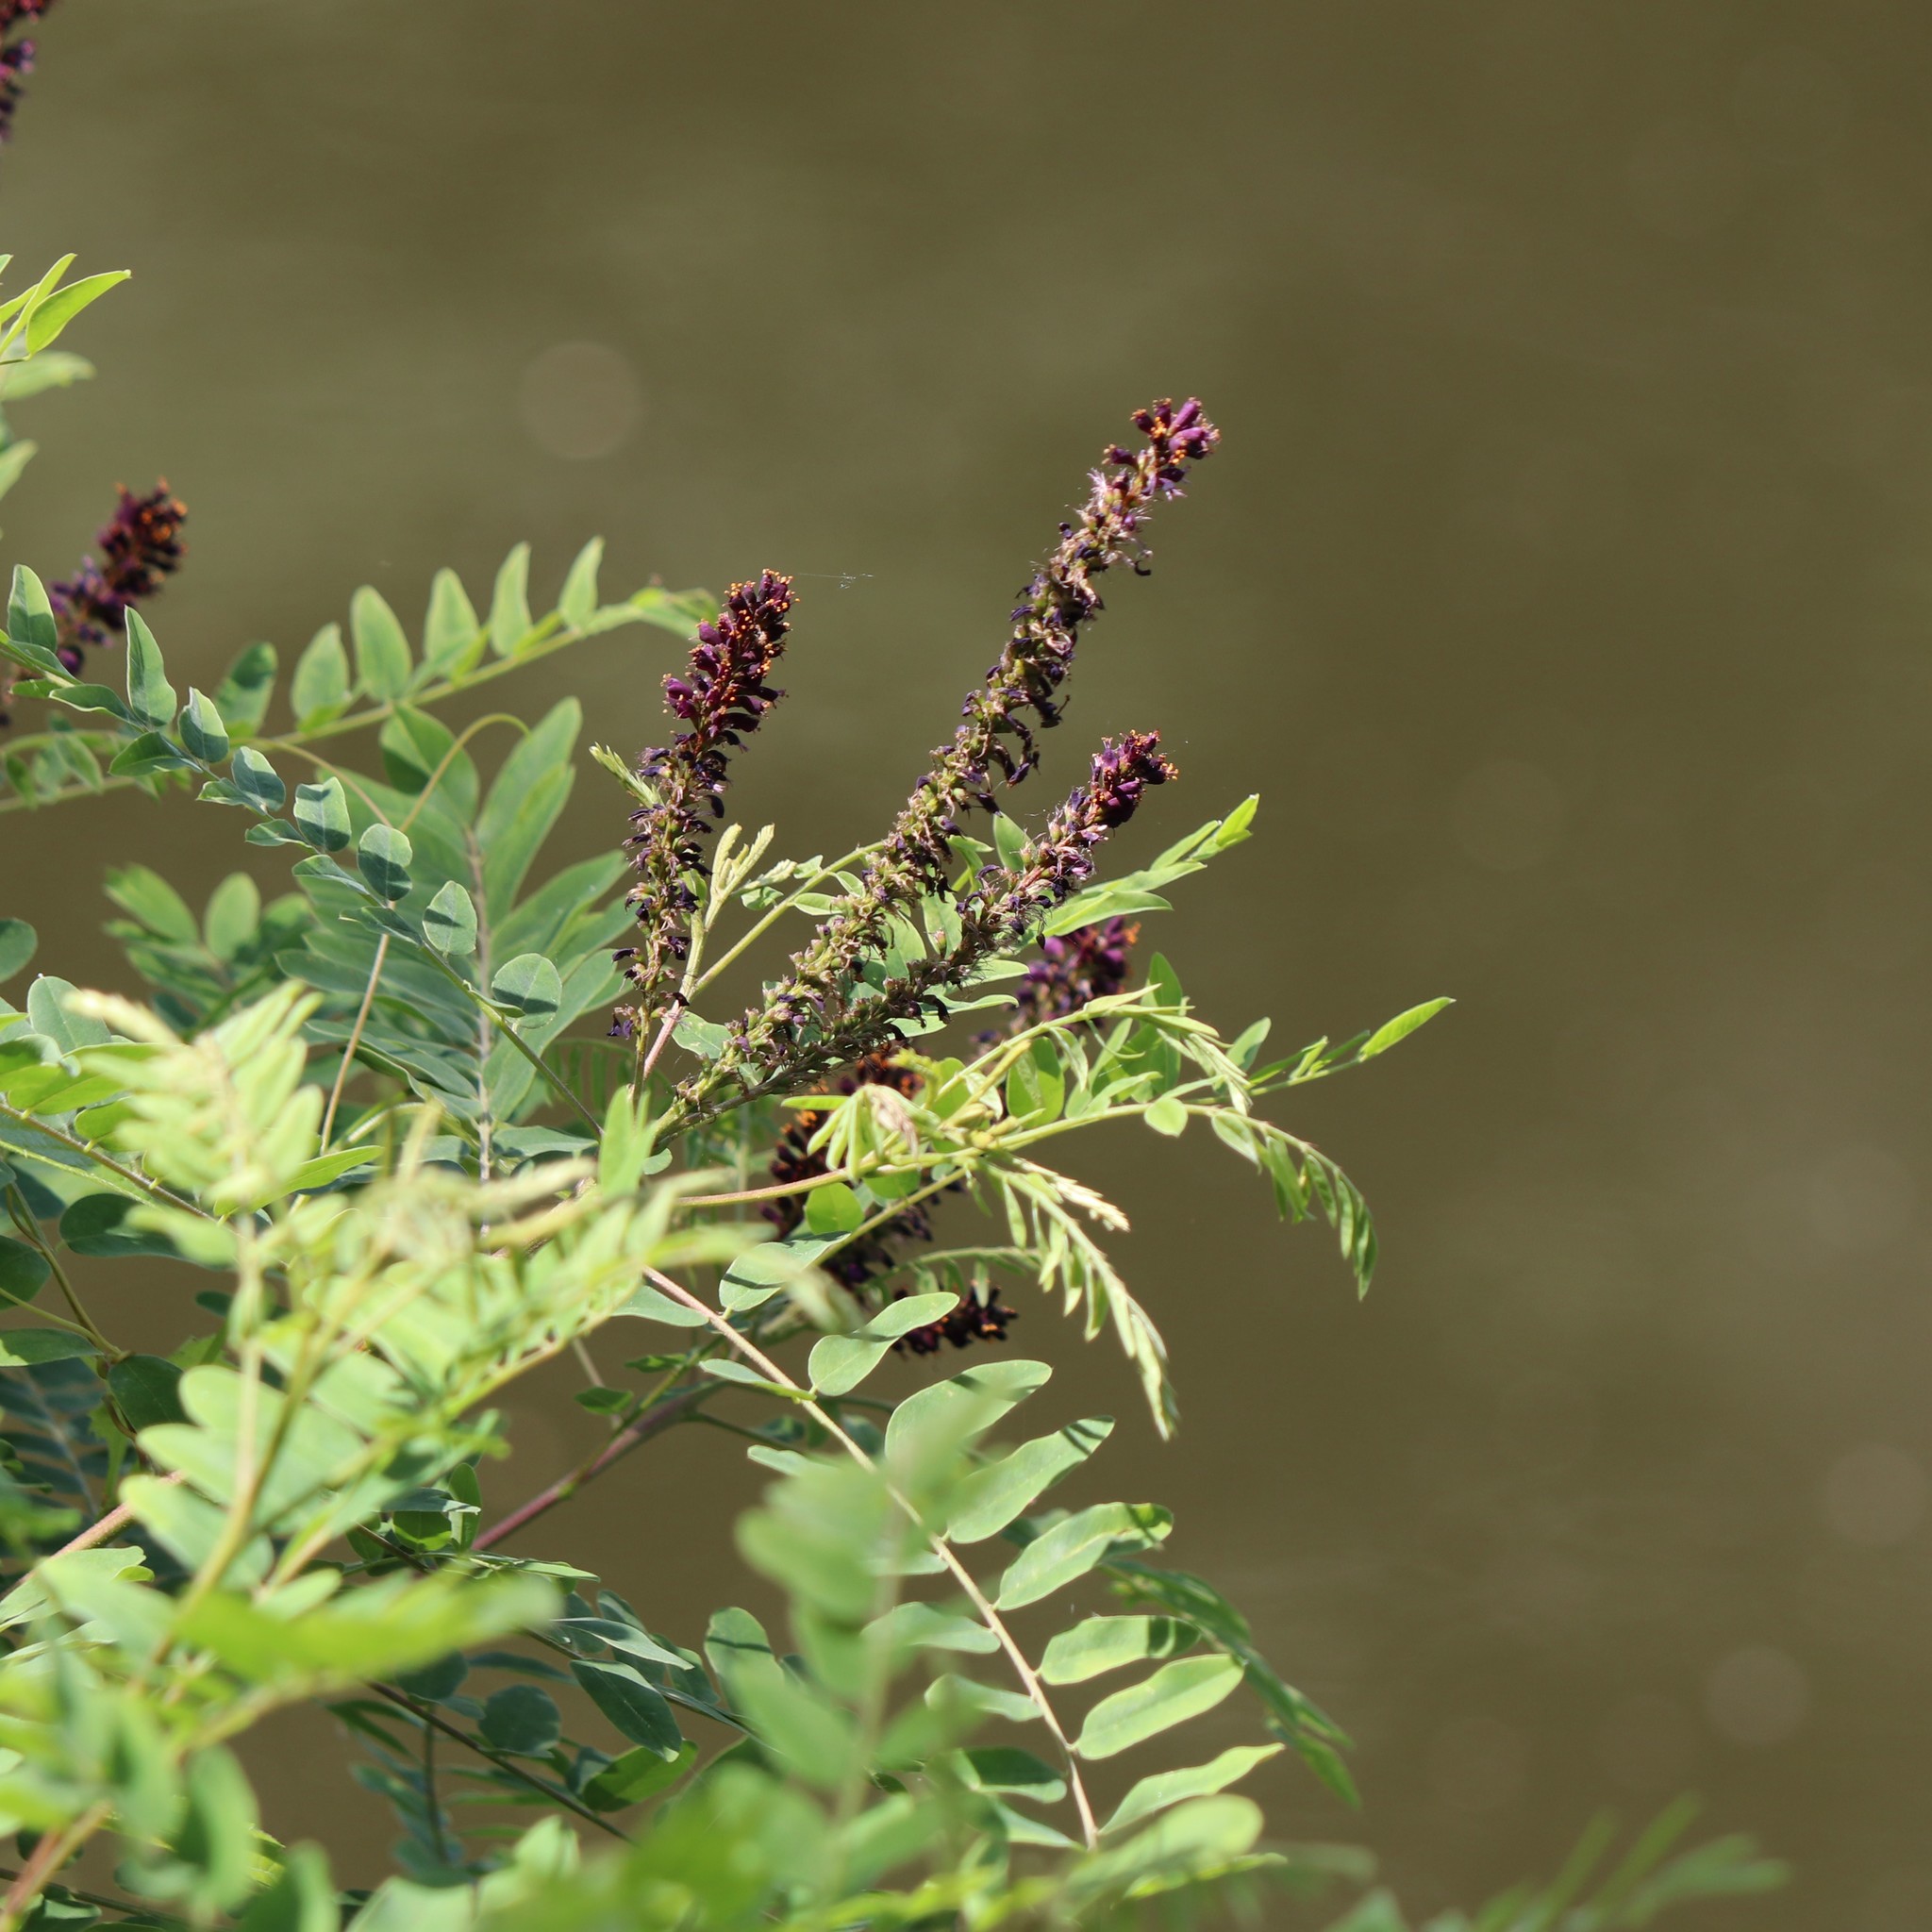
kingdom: Plantae
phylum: Tracheophyta
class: Magnoliopsida
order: Fabales
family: Fabaceae
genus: Amorpha
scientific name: Amorpha fruticosa
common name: False indigo
